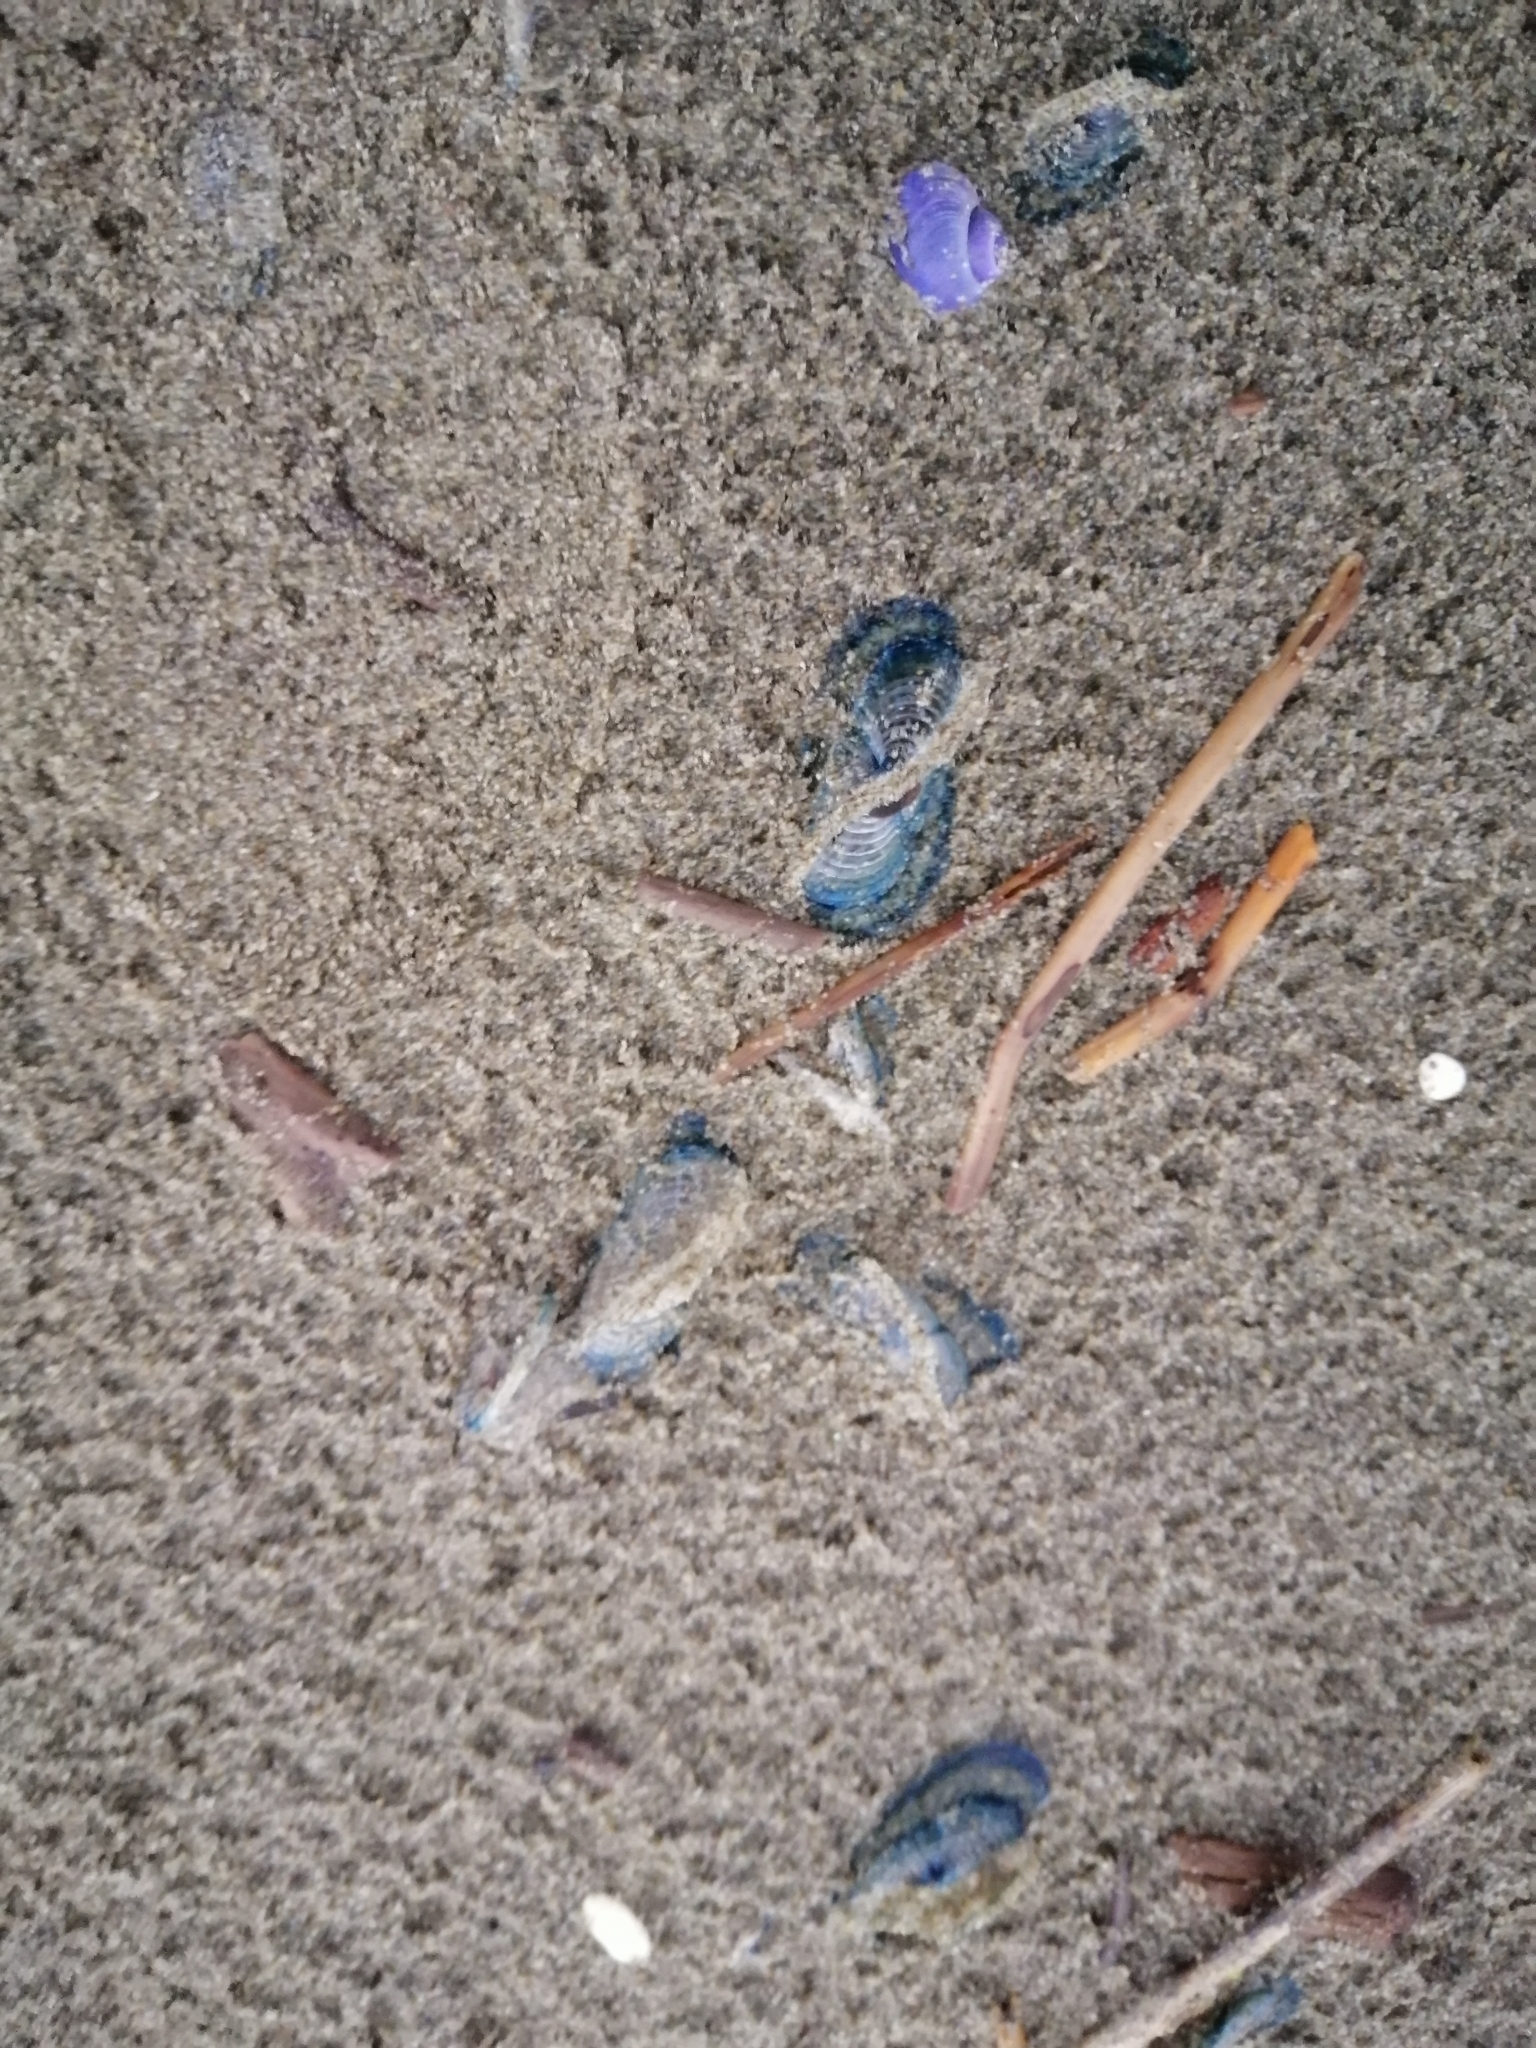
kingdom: Animalia
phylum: Cnidaria
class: Hydrozoa
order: Anthoathecata
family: Porpitidae
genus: Velella
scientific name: Velella velella
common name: By-the-wind-sailor
